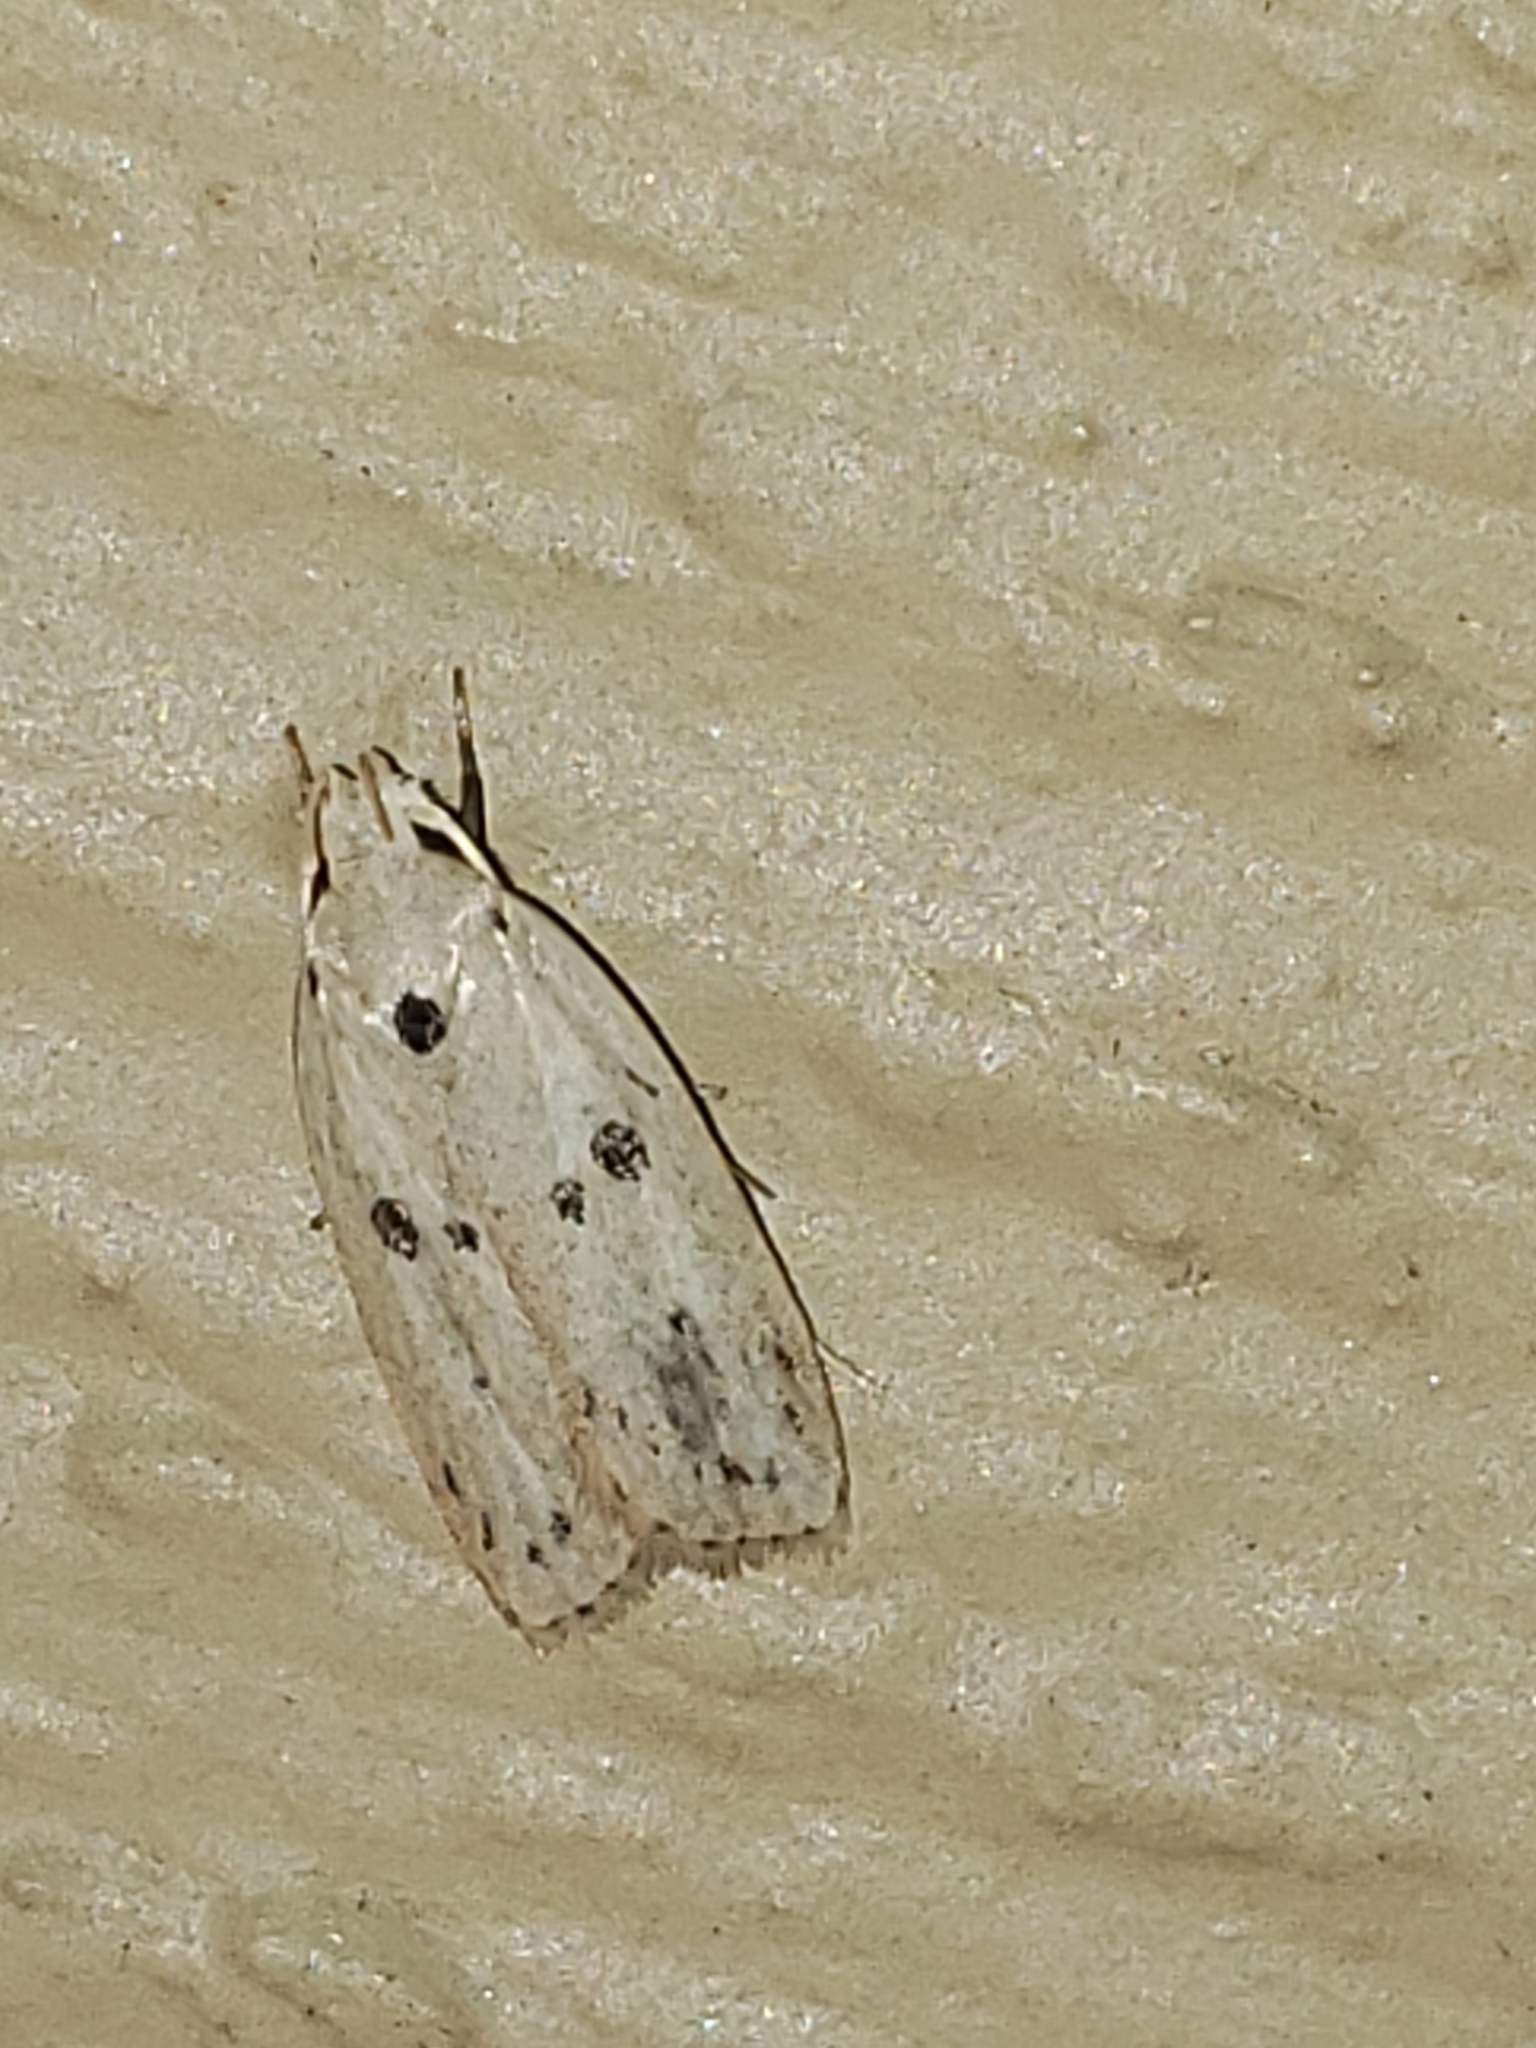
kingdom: Animalia
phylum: Arthropoda
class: Insecta
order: Lepidoptera
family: Peleopodidae
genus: Scythropiodes
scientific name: Scythropiodes issikii
